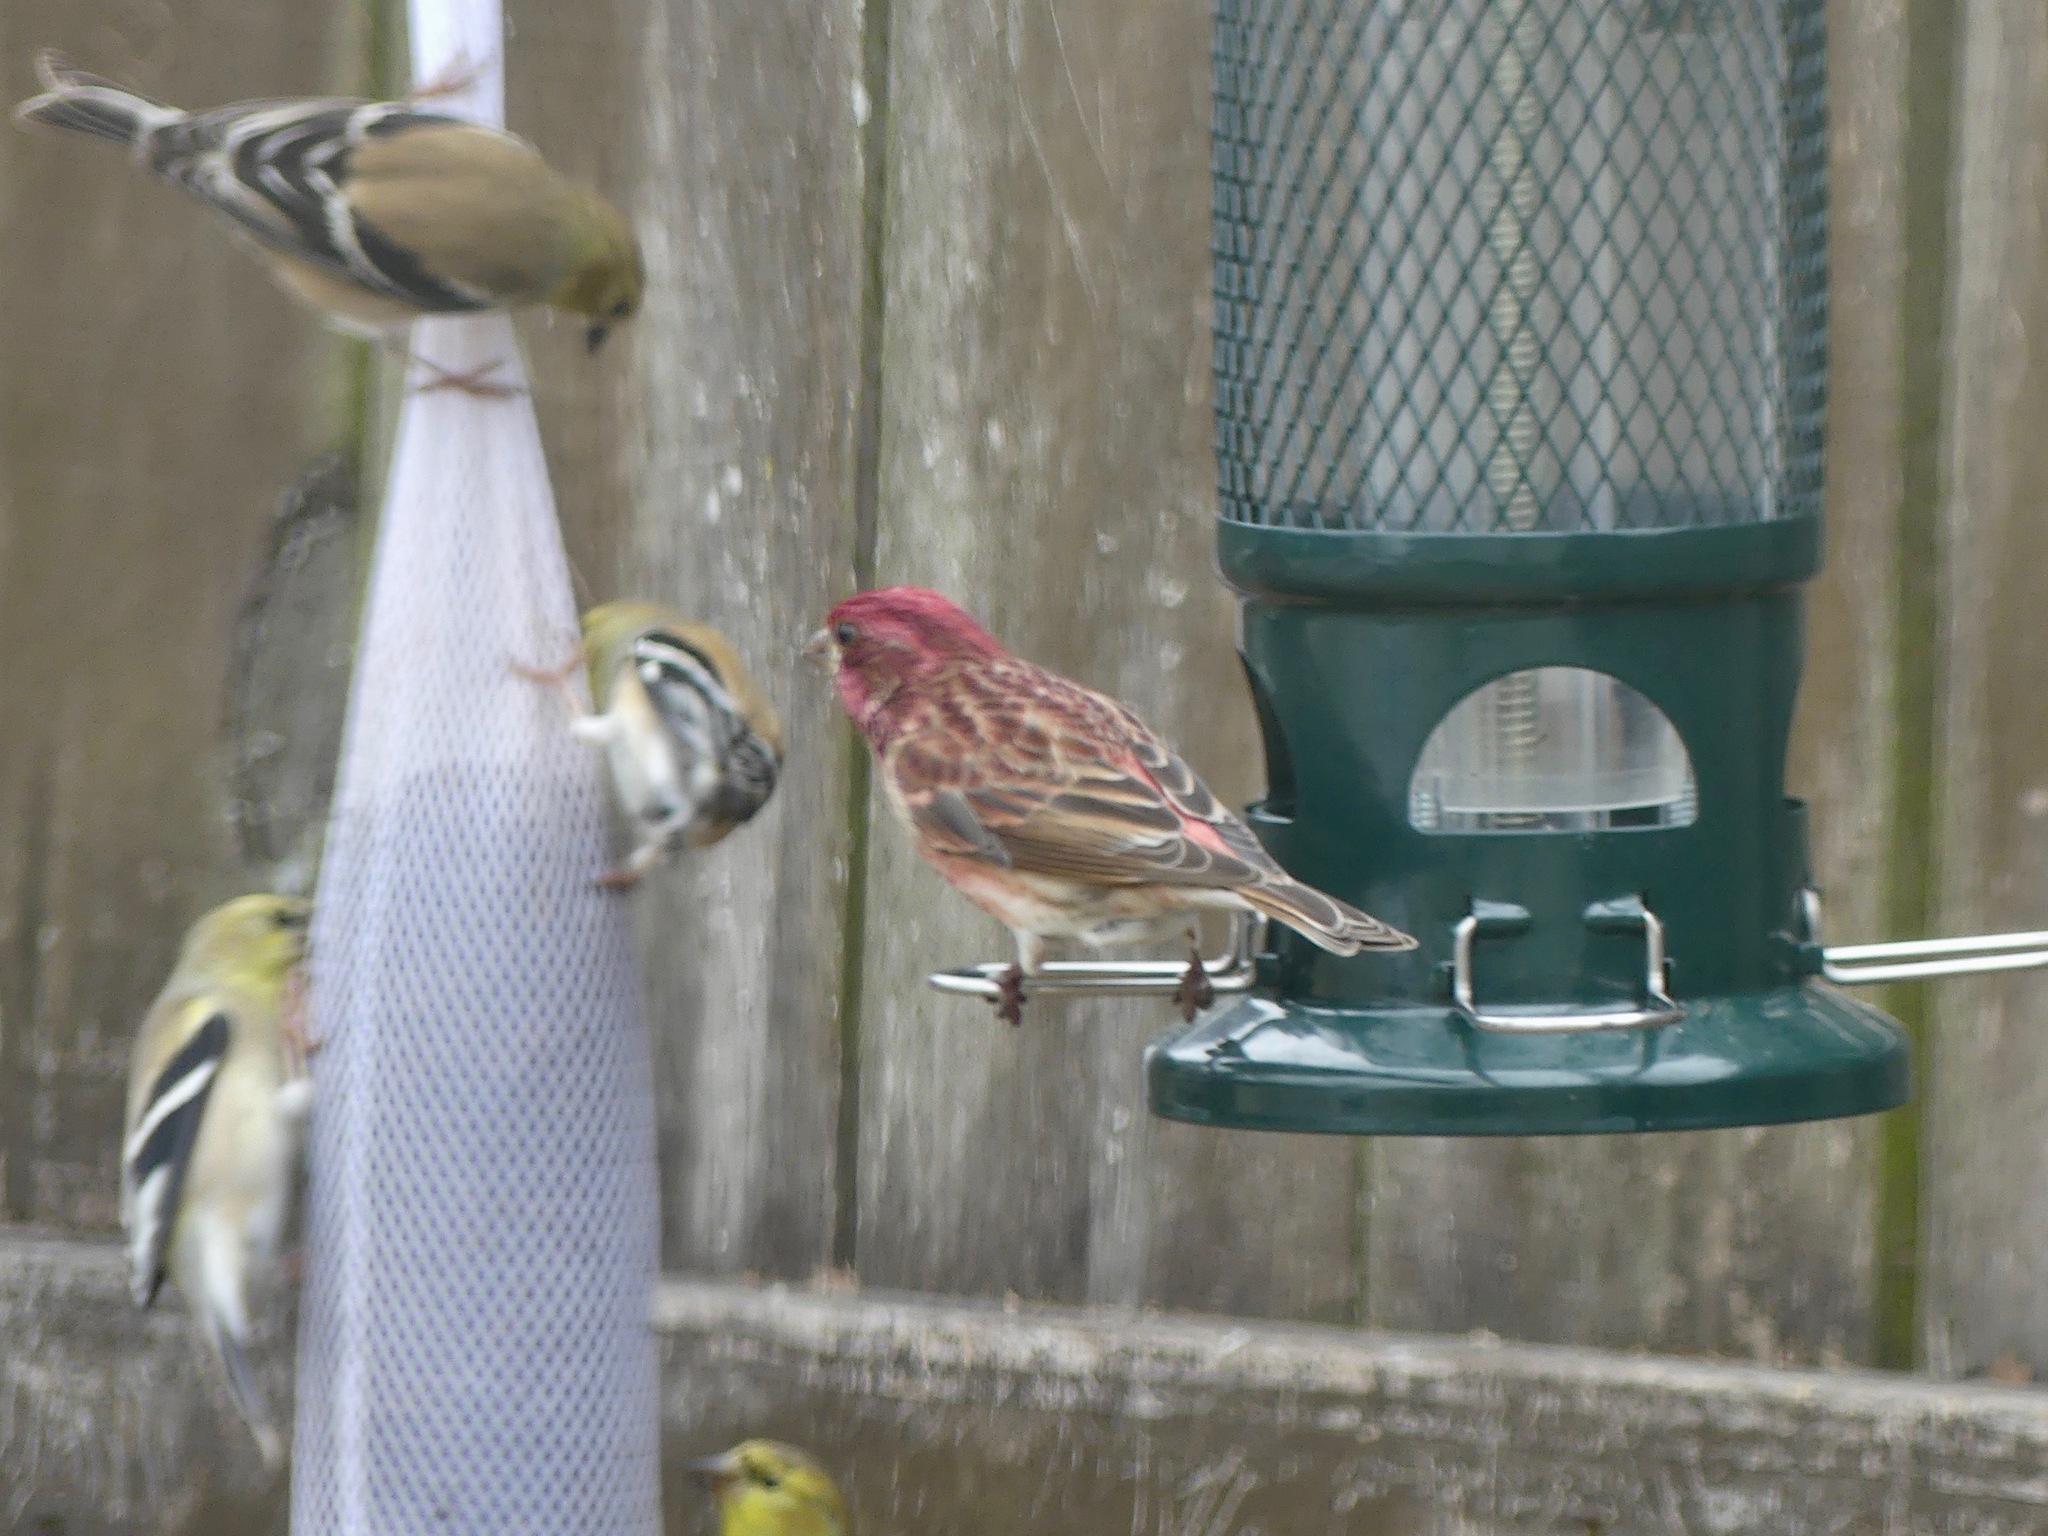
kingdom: Animalia
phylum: Chordata
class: Aves
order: Passeriformes
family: Fringillidae
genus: Haemorhous
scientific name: Haemorhous purpureus
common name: Purple finch
